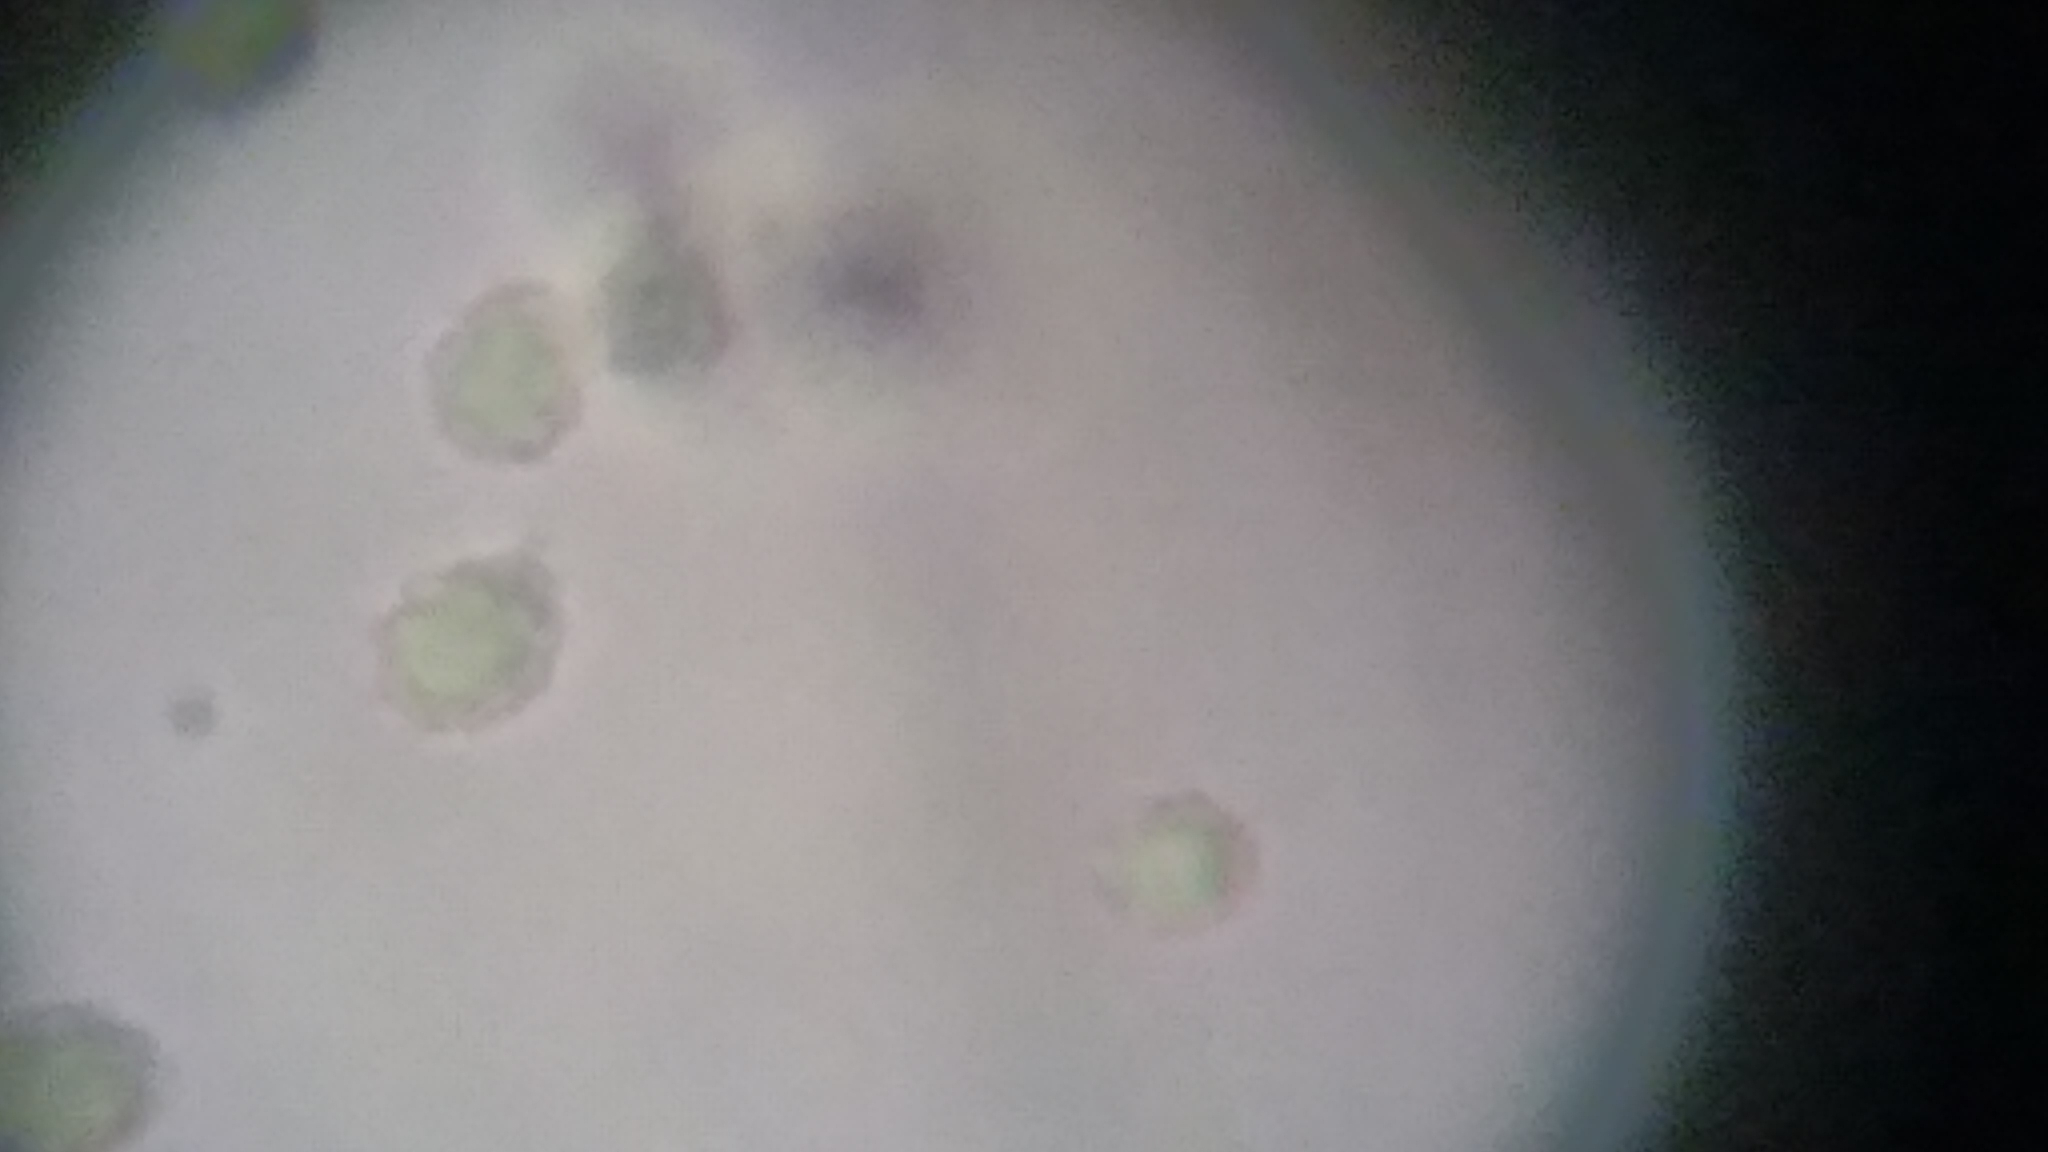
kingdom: Fungi
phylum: Basidiomycota
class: Agaricomycetes
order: Trechisporales
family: Sistotremataceae
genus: Trechispora
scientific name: Trechispora mollusca
